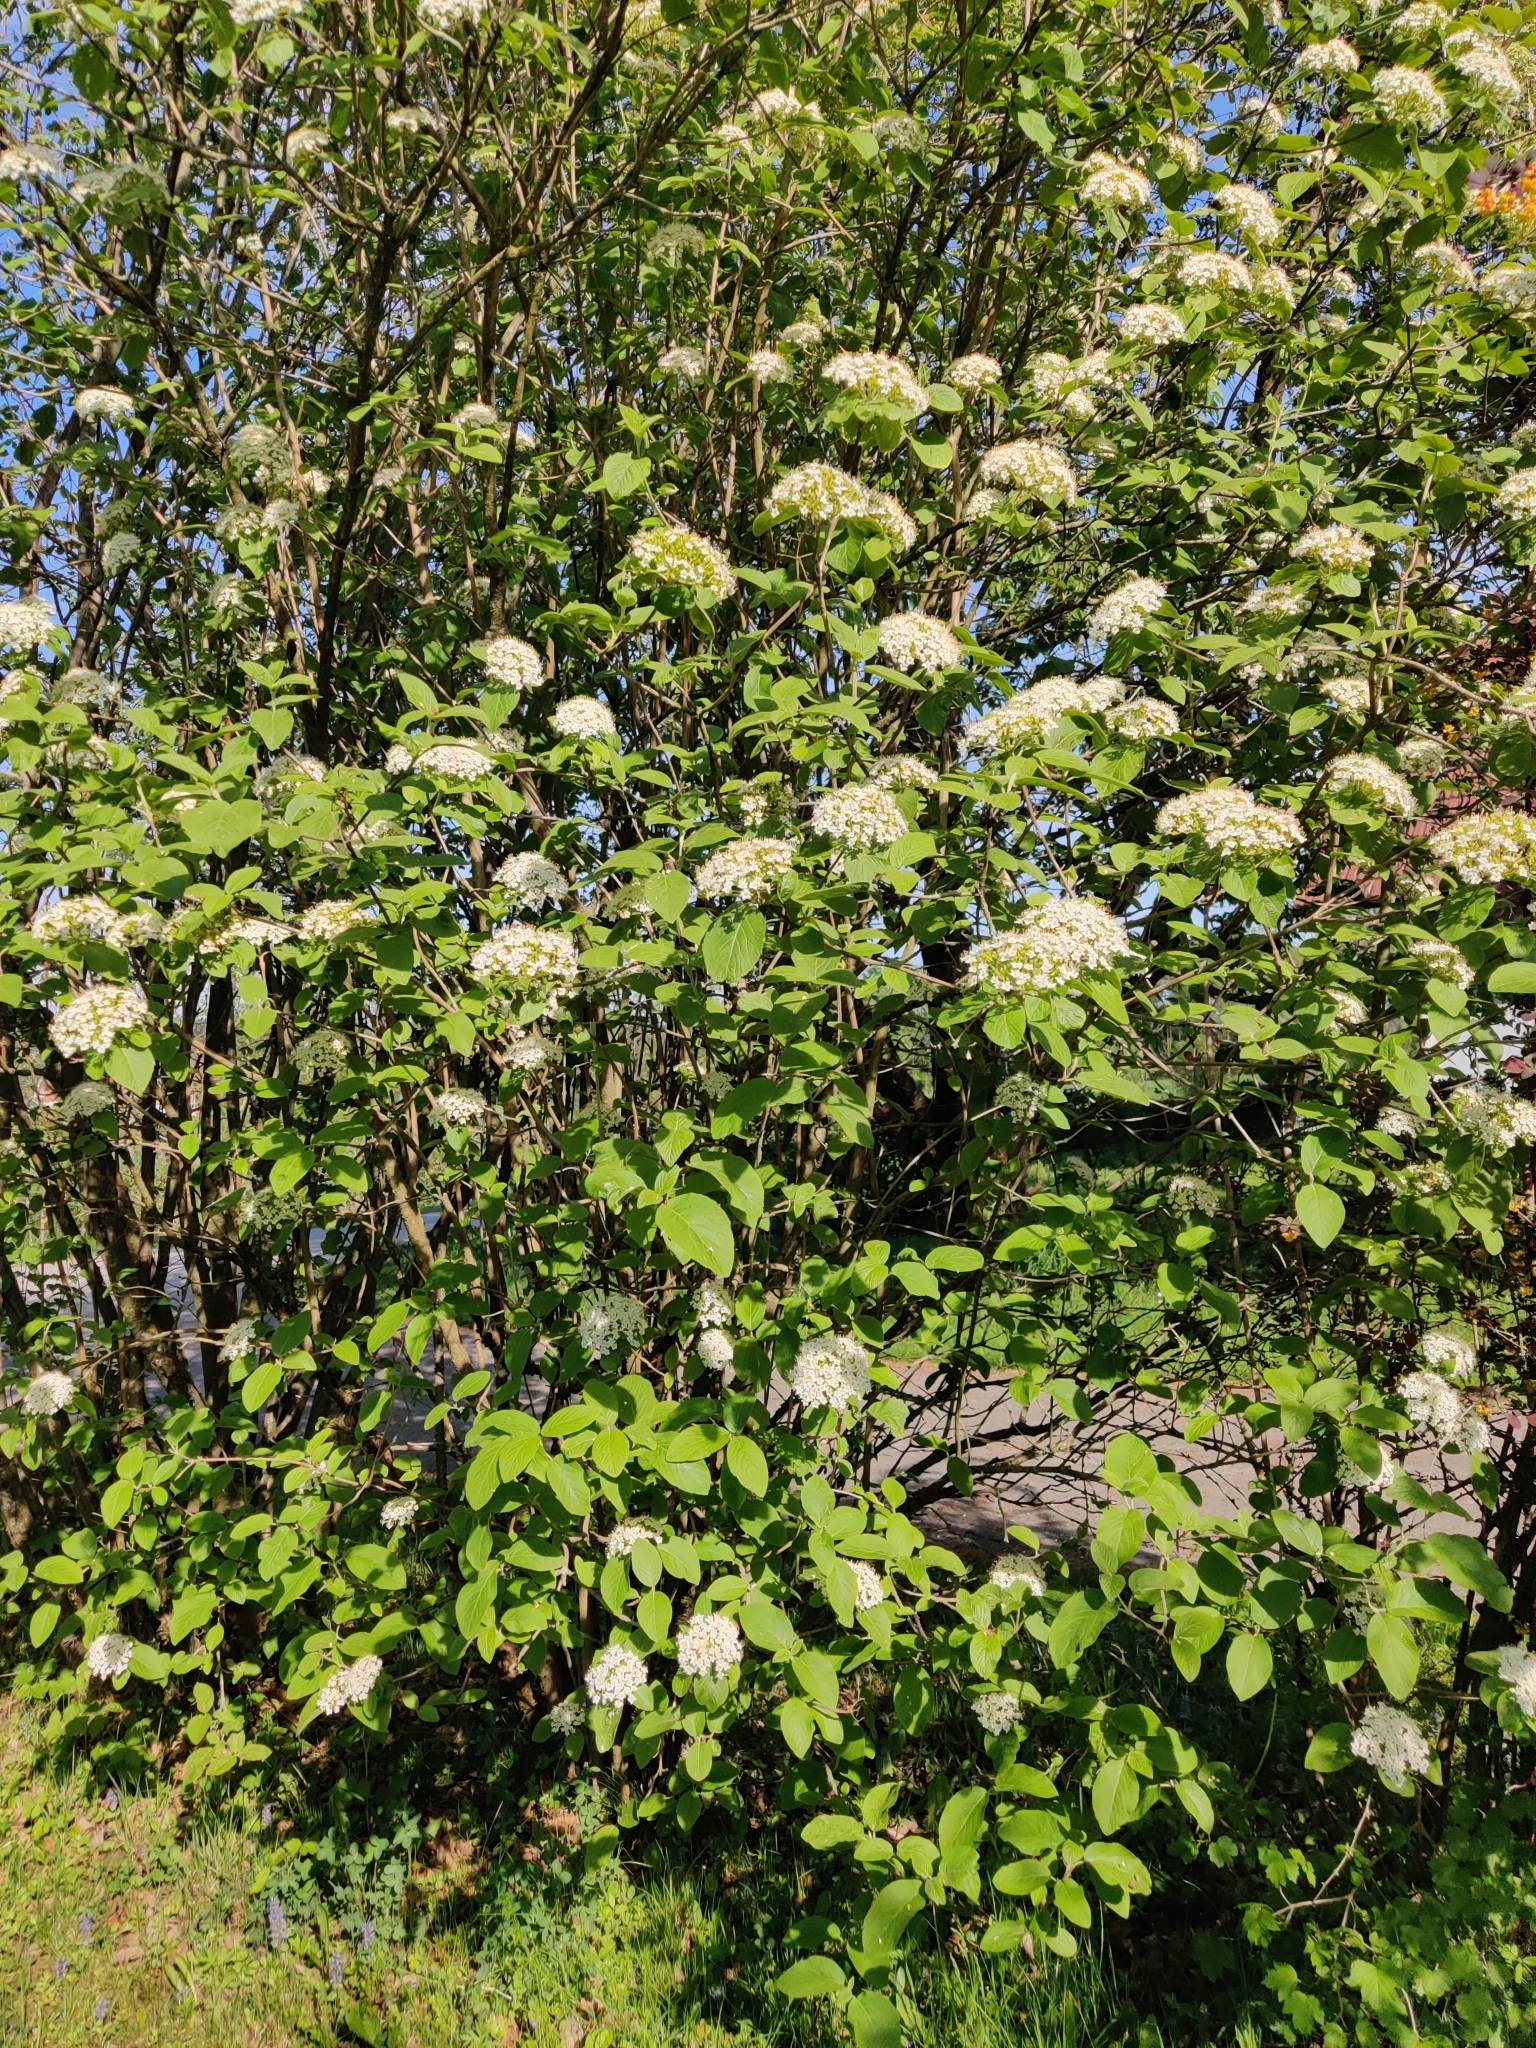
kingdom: Plantae
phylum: Tracheophyta
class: Magnoliopsida
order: Dipsacales
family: Viburnaceae
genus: Viburnum
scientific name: Viburnum lantana
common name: Wayfaring tree
